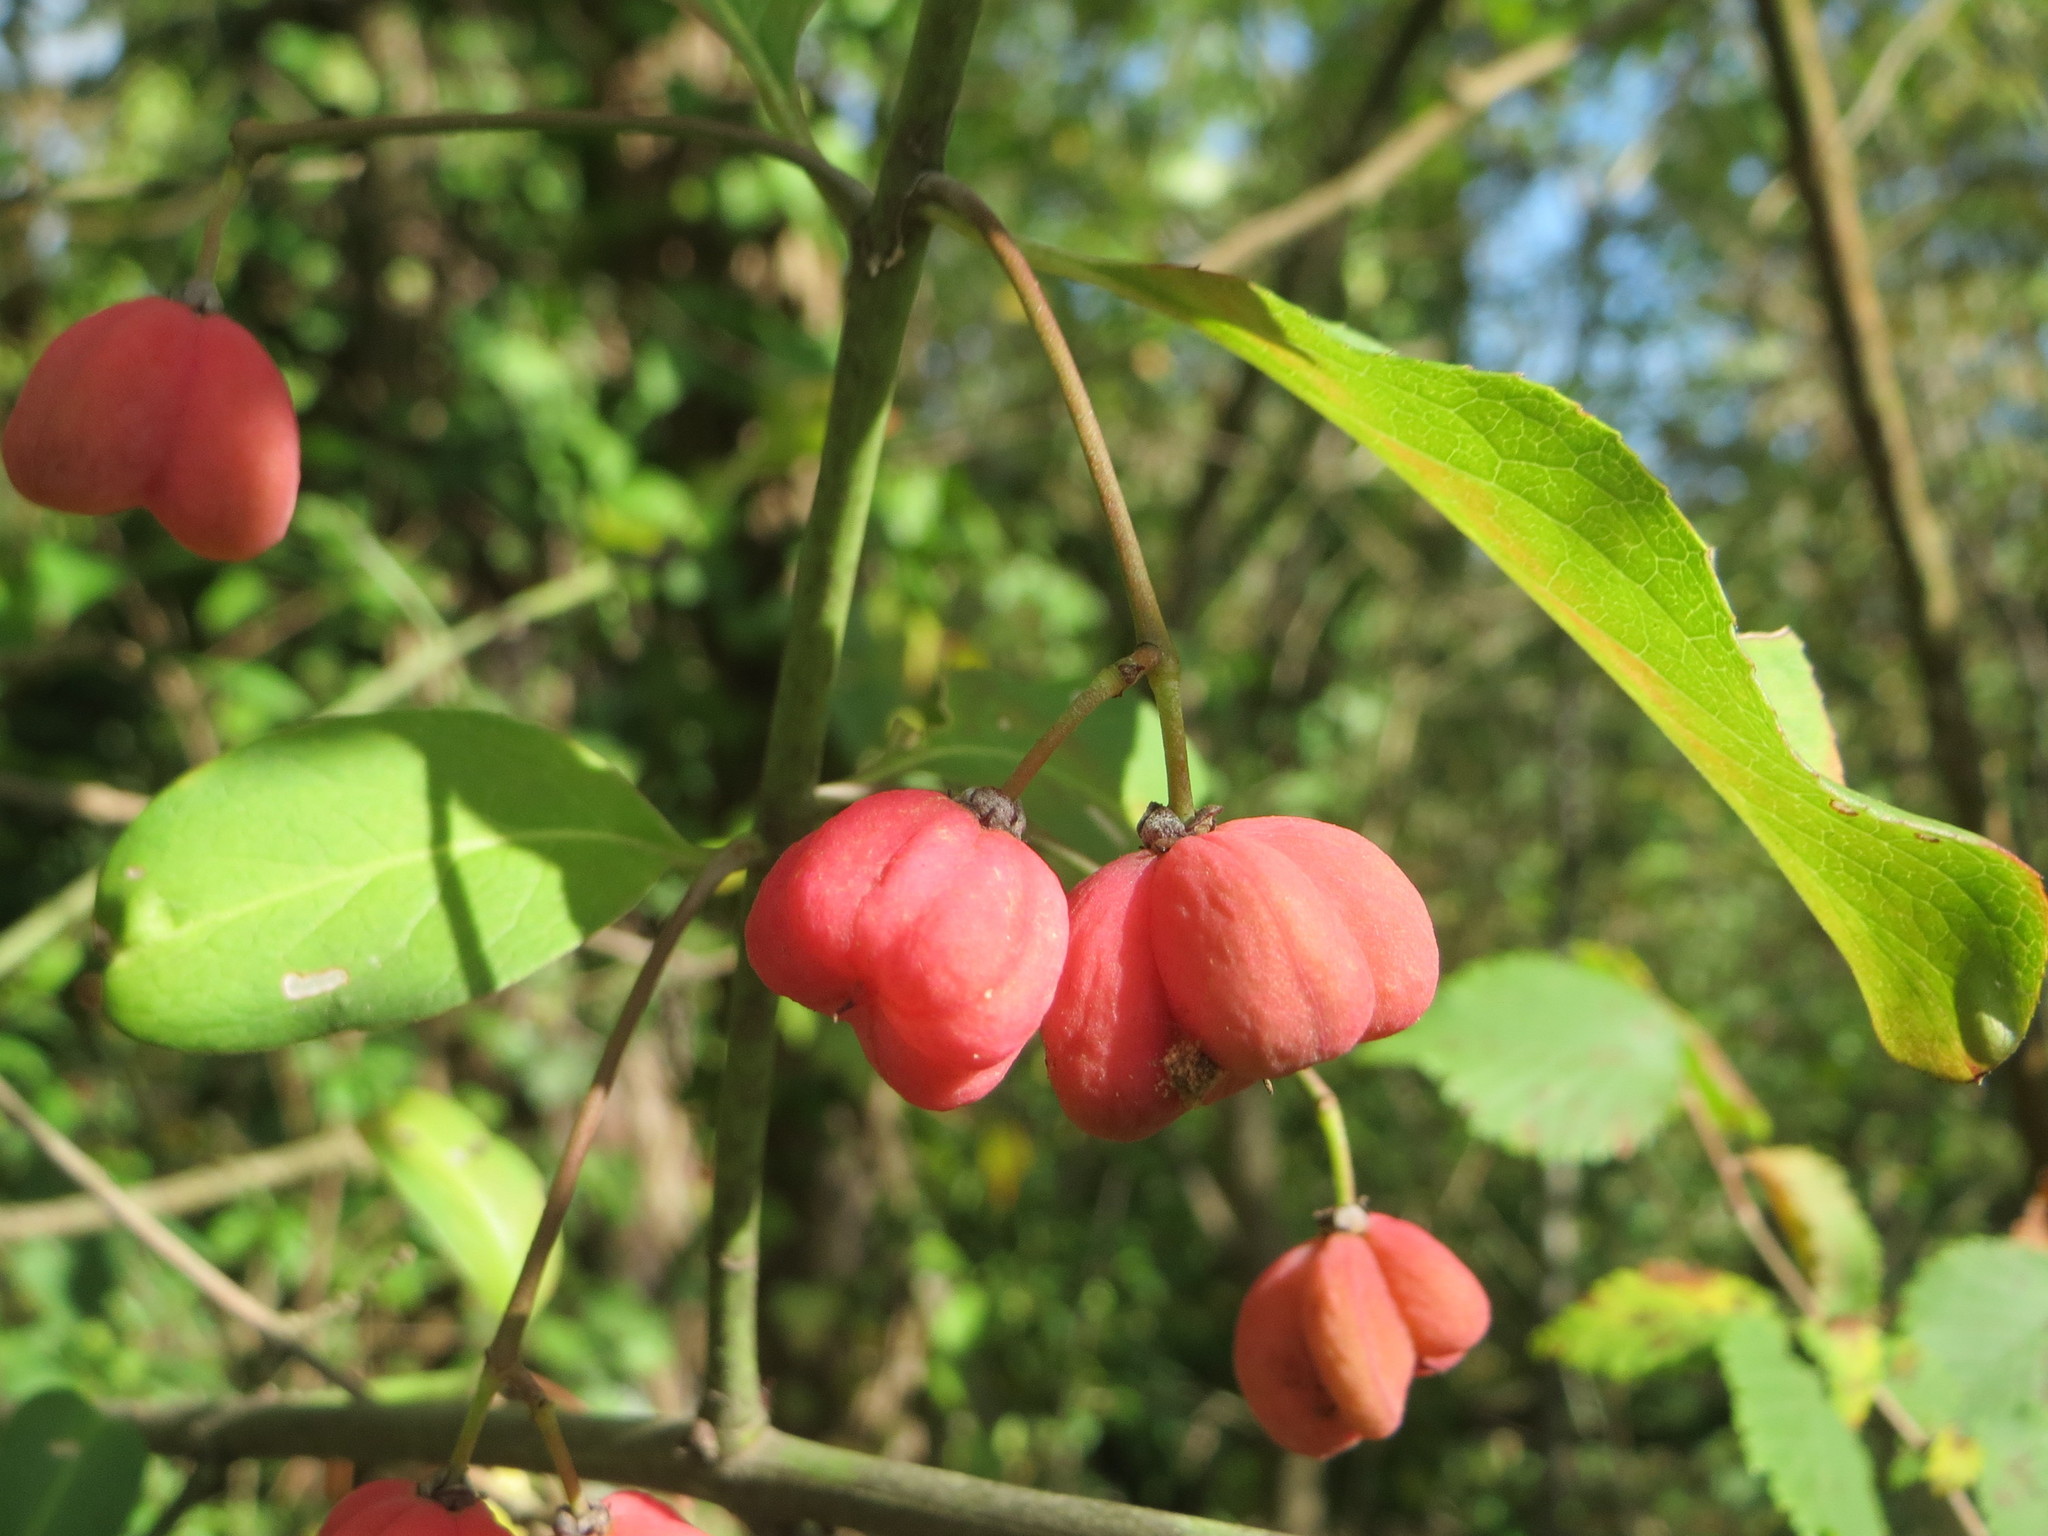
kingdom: Plantae
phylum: Tracheophyta
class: Magnoliopsida
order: Celastrales
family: Celastraceae
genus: Euonymus
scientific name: Euonymus europaeus
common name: Spindle
